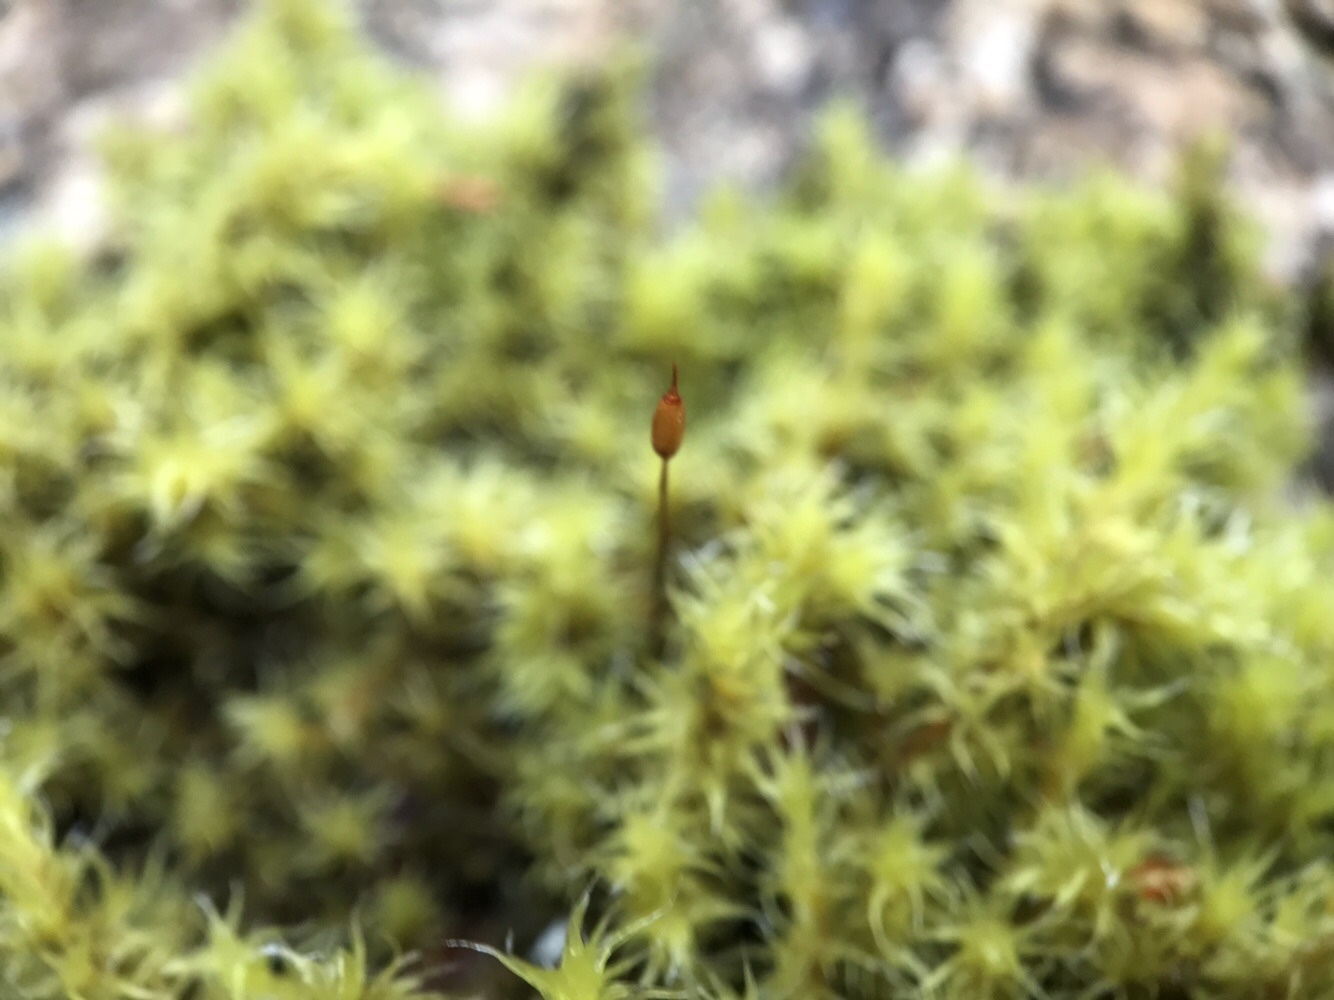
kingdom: Plantae
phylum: Bryophyta
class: Bryopsida
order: Grimmiales
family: Grimmiaceae
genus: Niphotrichum
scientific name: Niphotrichum ericoides
